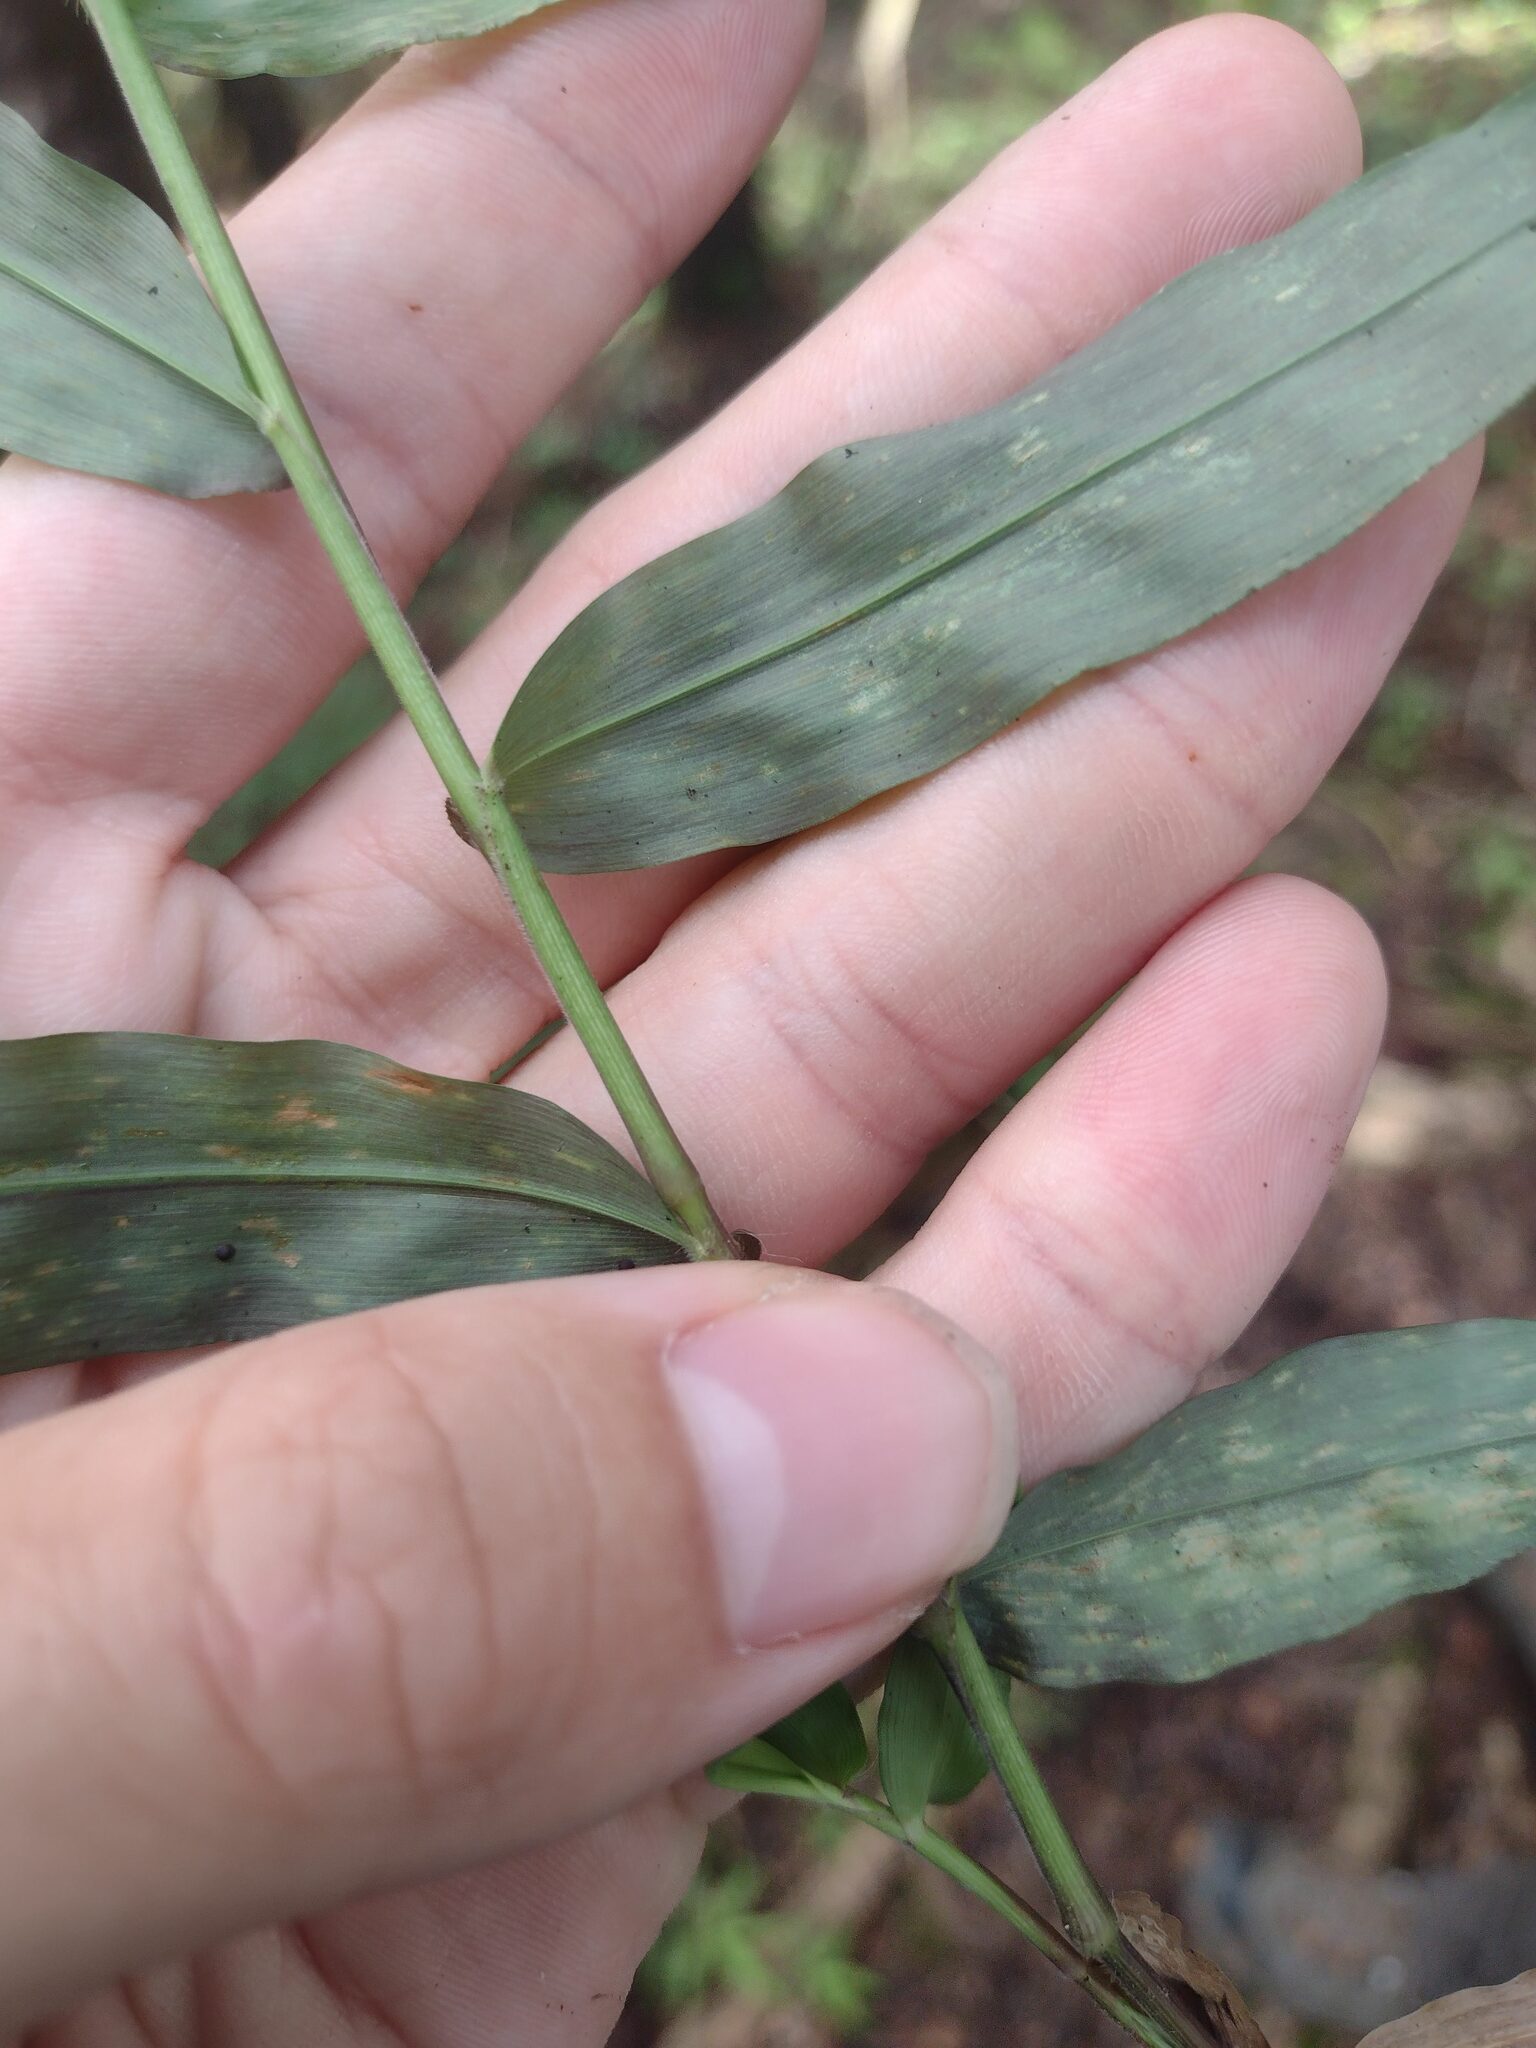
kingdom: Plantae
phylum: Tracheophyta
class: Liliopsida
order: Poales
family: Poaceae
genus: Oplismenus
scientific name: Oplismenus hirtellus
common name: Basketgrass
